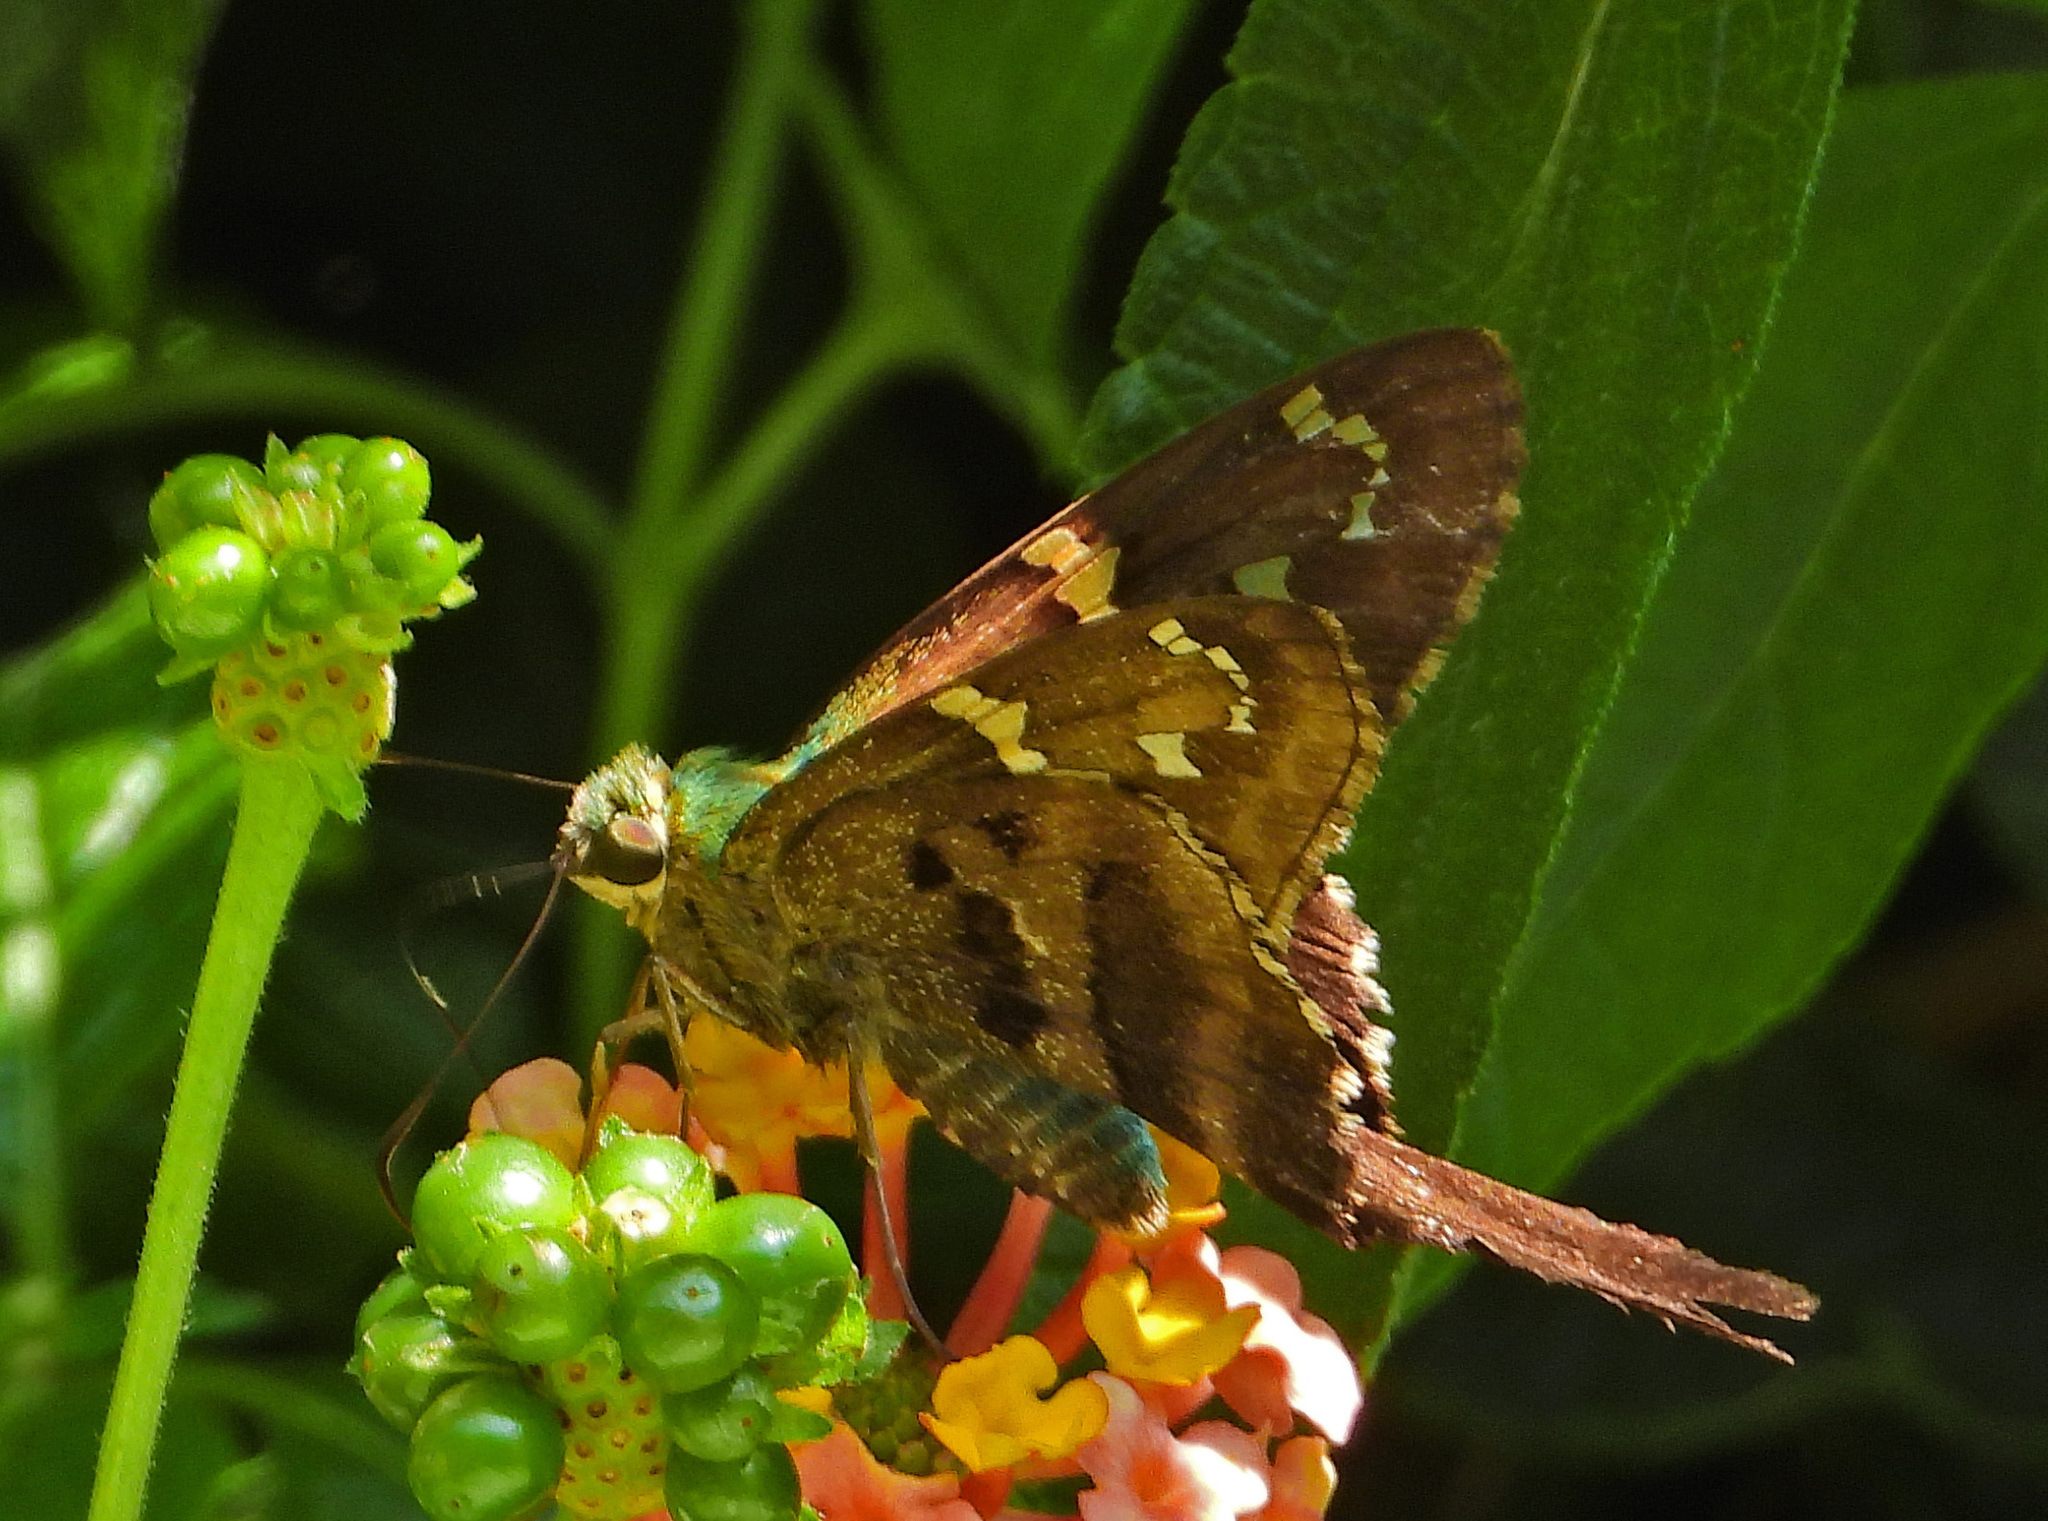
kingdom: Animalia
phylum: Arthropoda
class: Insecta
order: Lepidoptera
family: Hesperiidae
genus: Urbanus
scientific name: Urbanus proteus
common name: Long-tailed skipper
